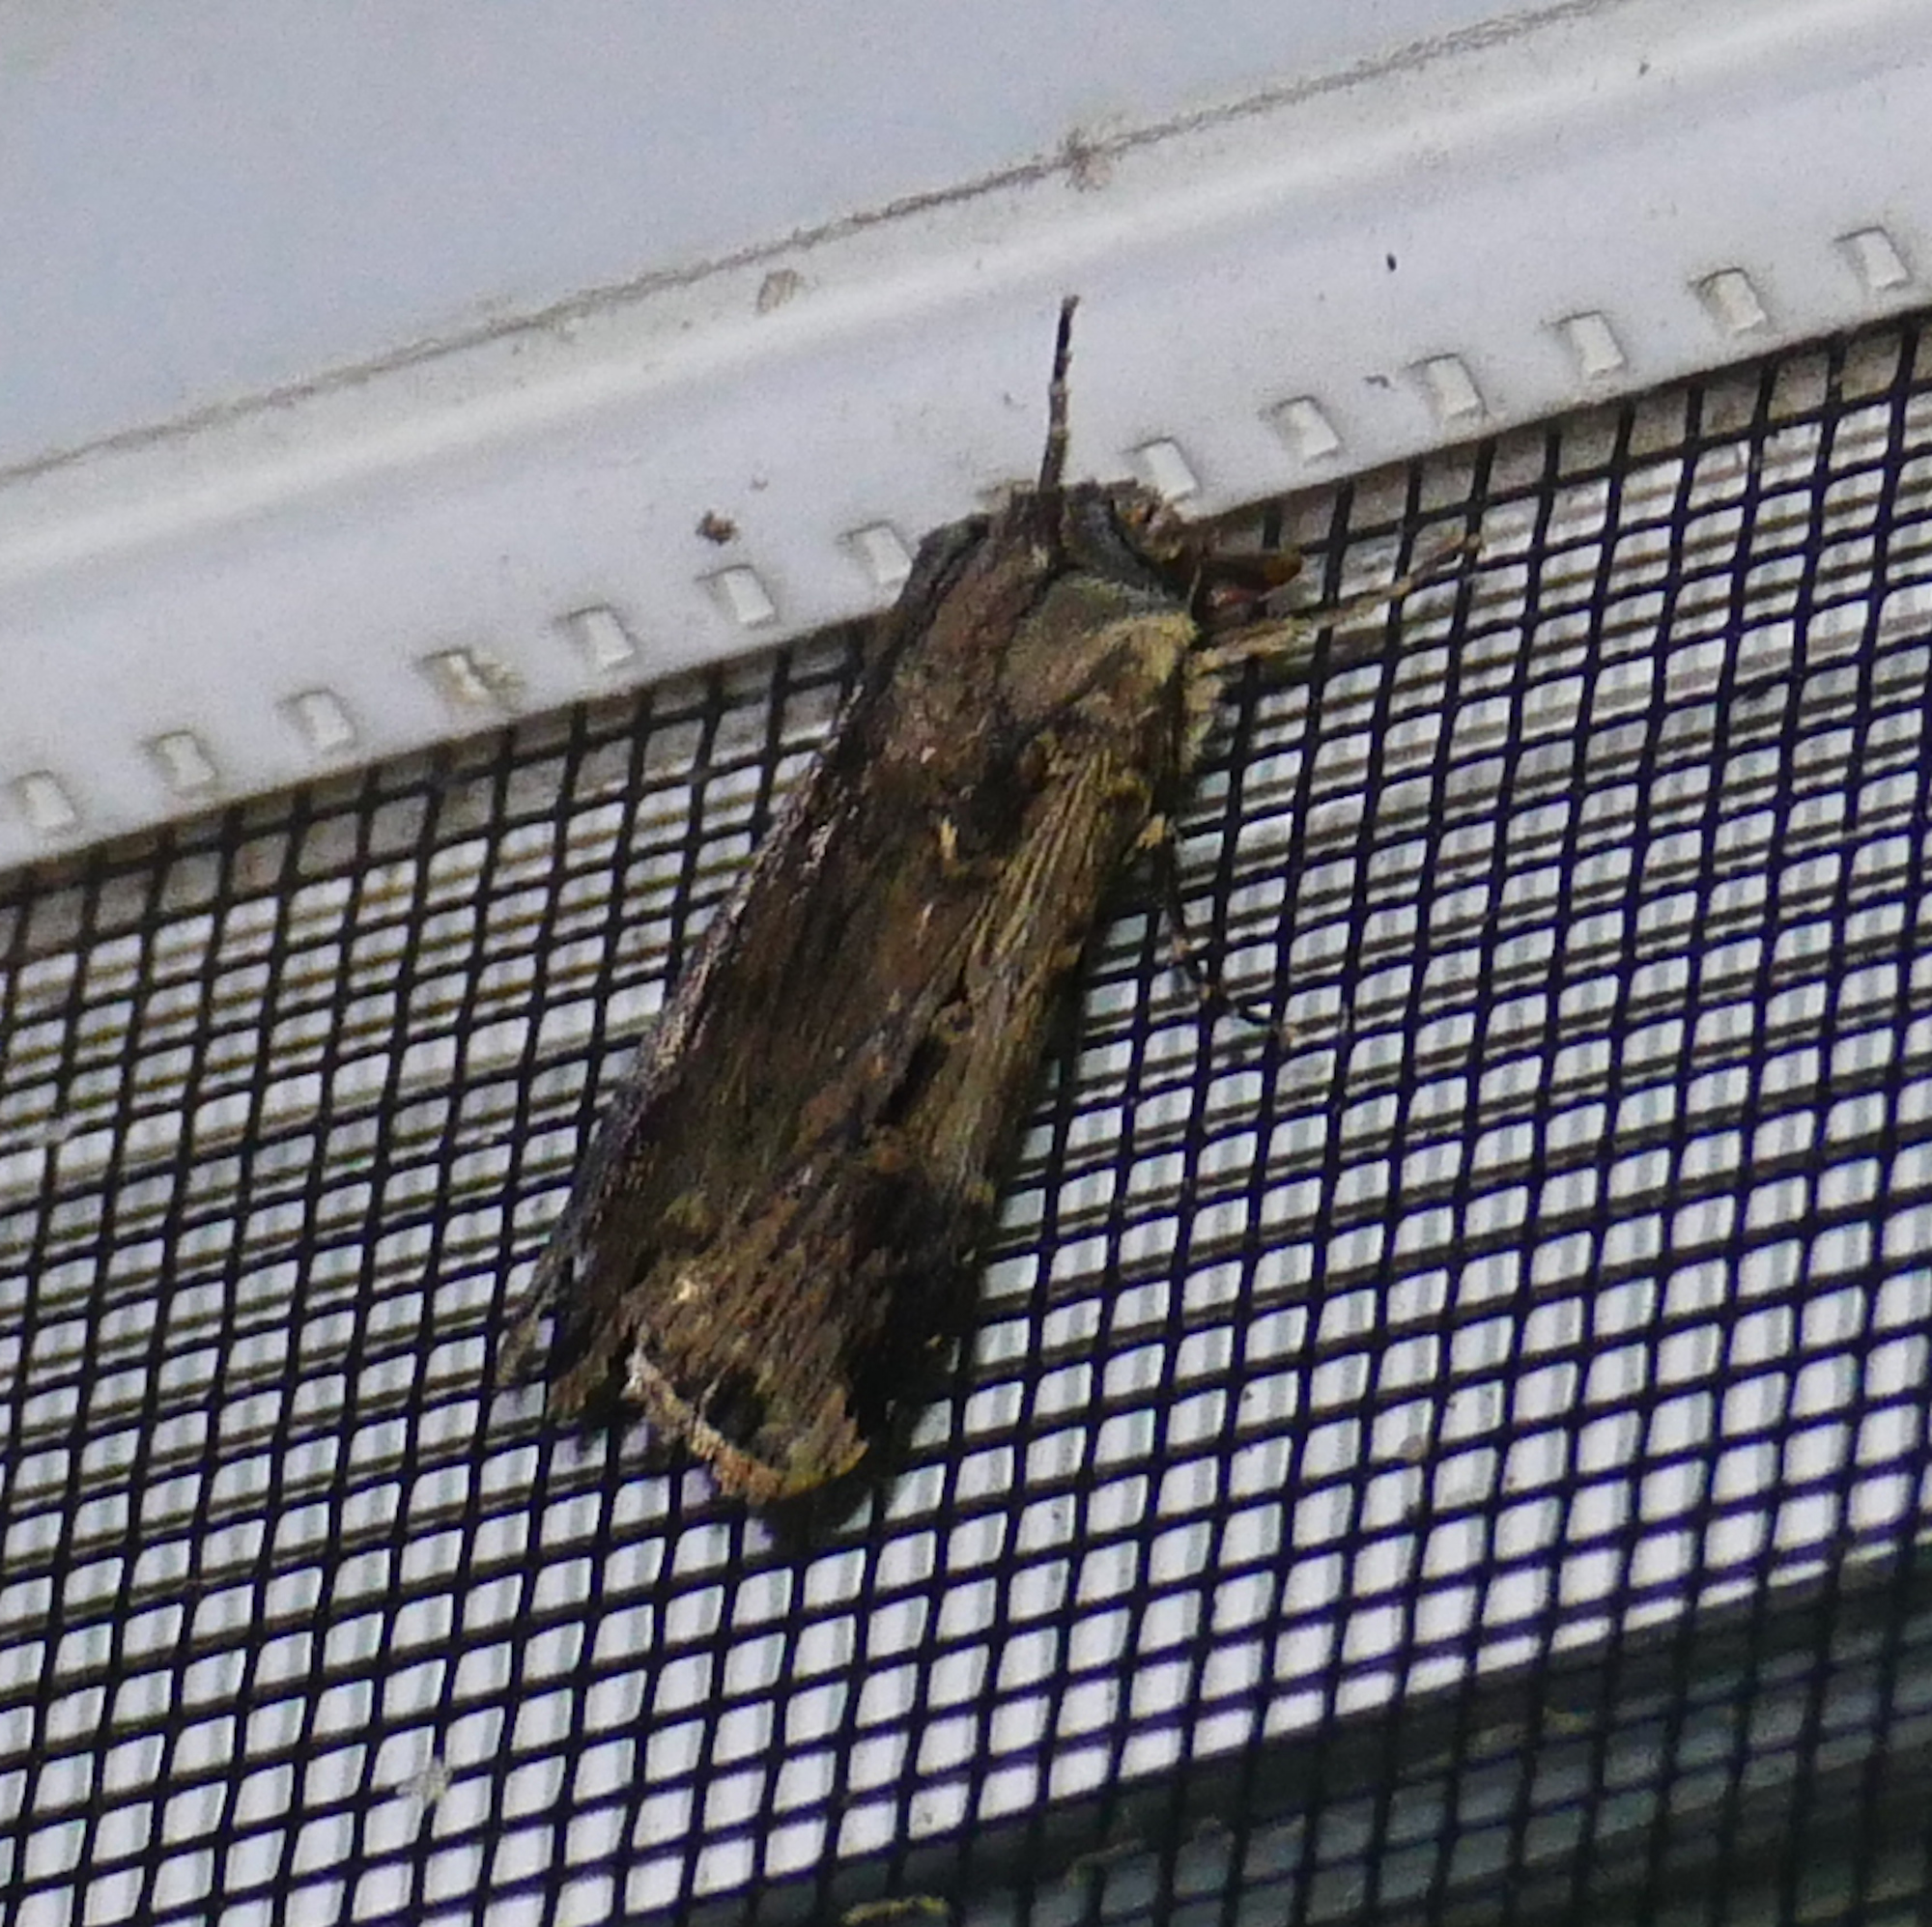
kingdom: Animalia
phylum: Arthropoda
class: Insecta
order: Lepidoptera
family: Noctuidae
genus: Feltia
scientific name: Feltia subterranea
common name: Granulate cutworm
